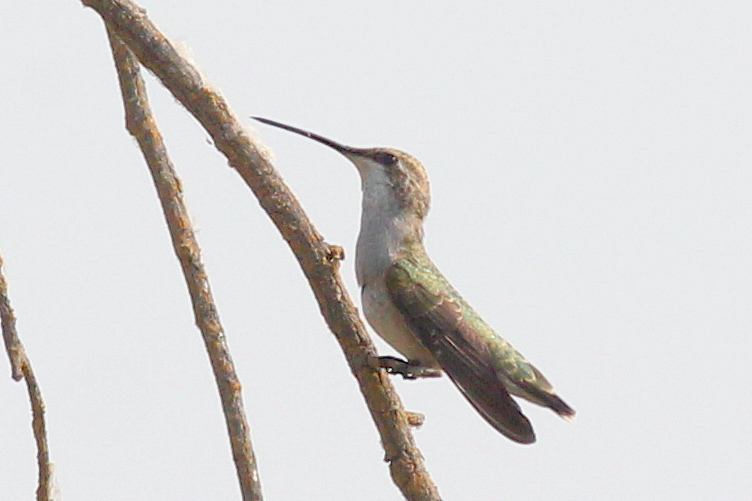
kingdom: Animalia
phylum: Chordata
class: Aves
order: Apodiformes
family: Trochilidae
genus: Archilochus
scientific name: Archilochus alexandri
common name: Black-chinned hummingbird
